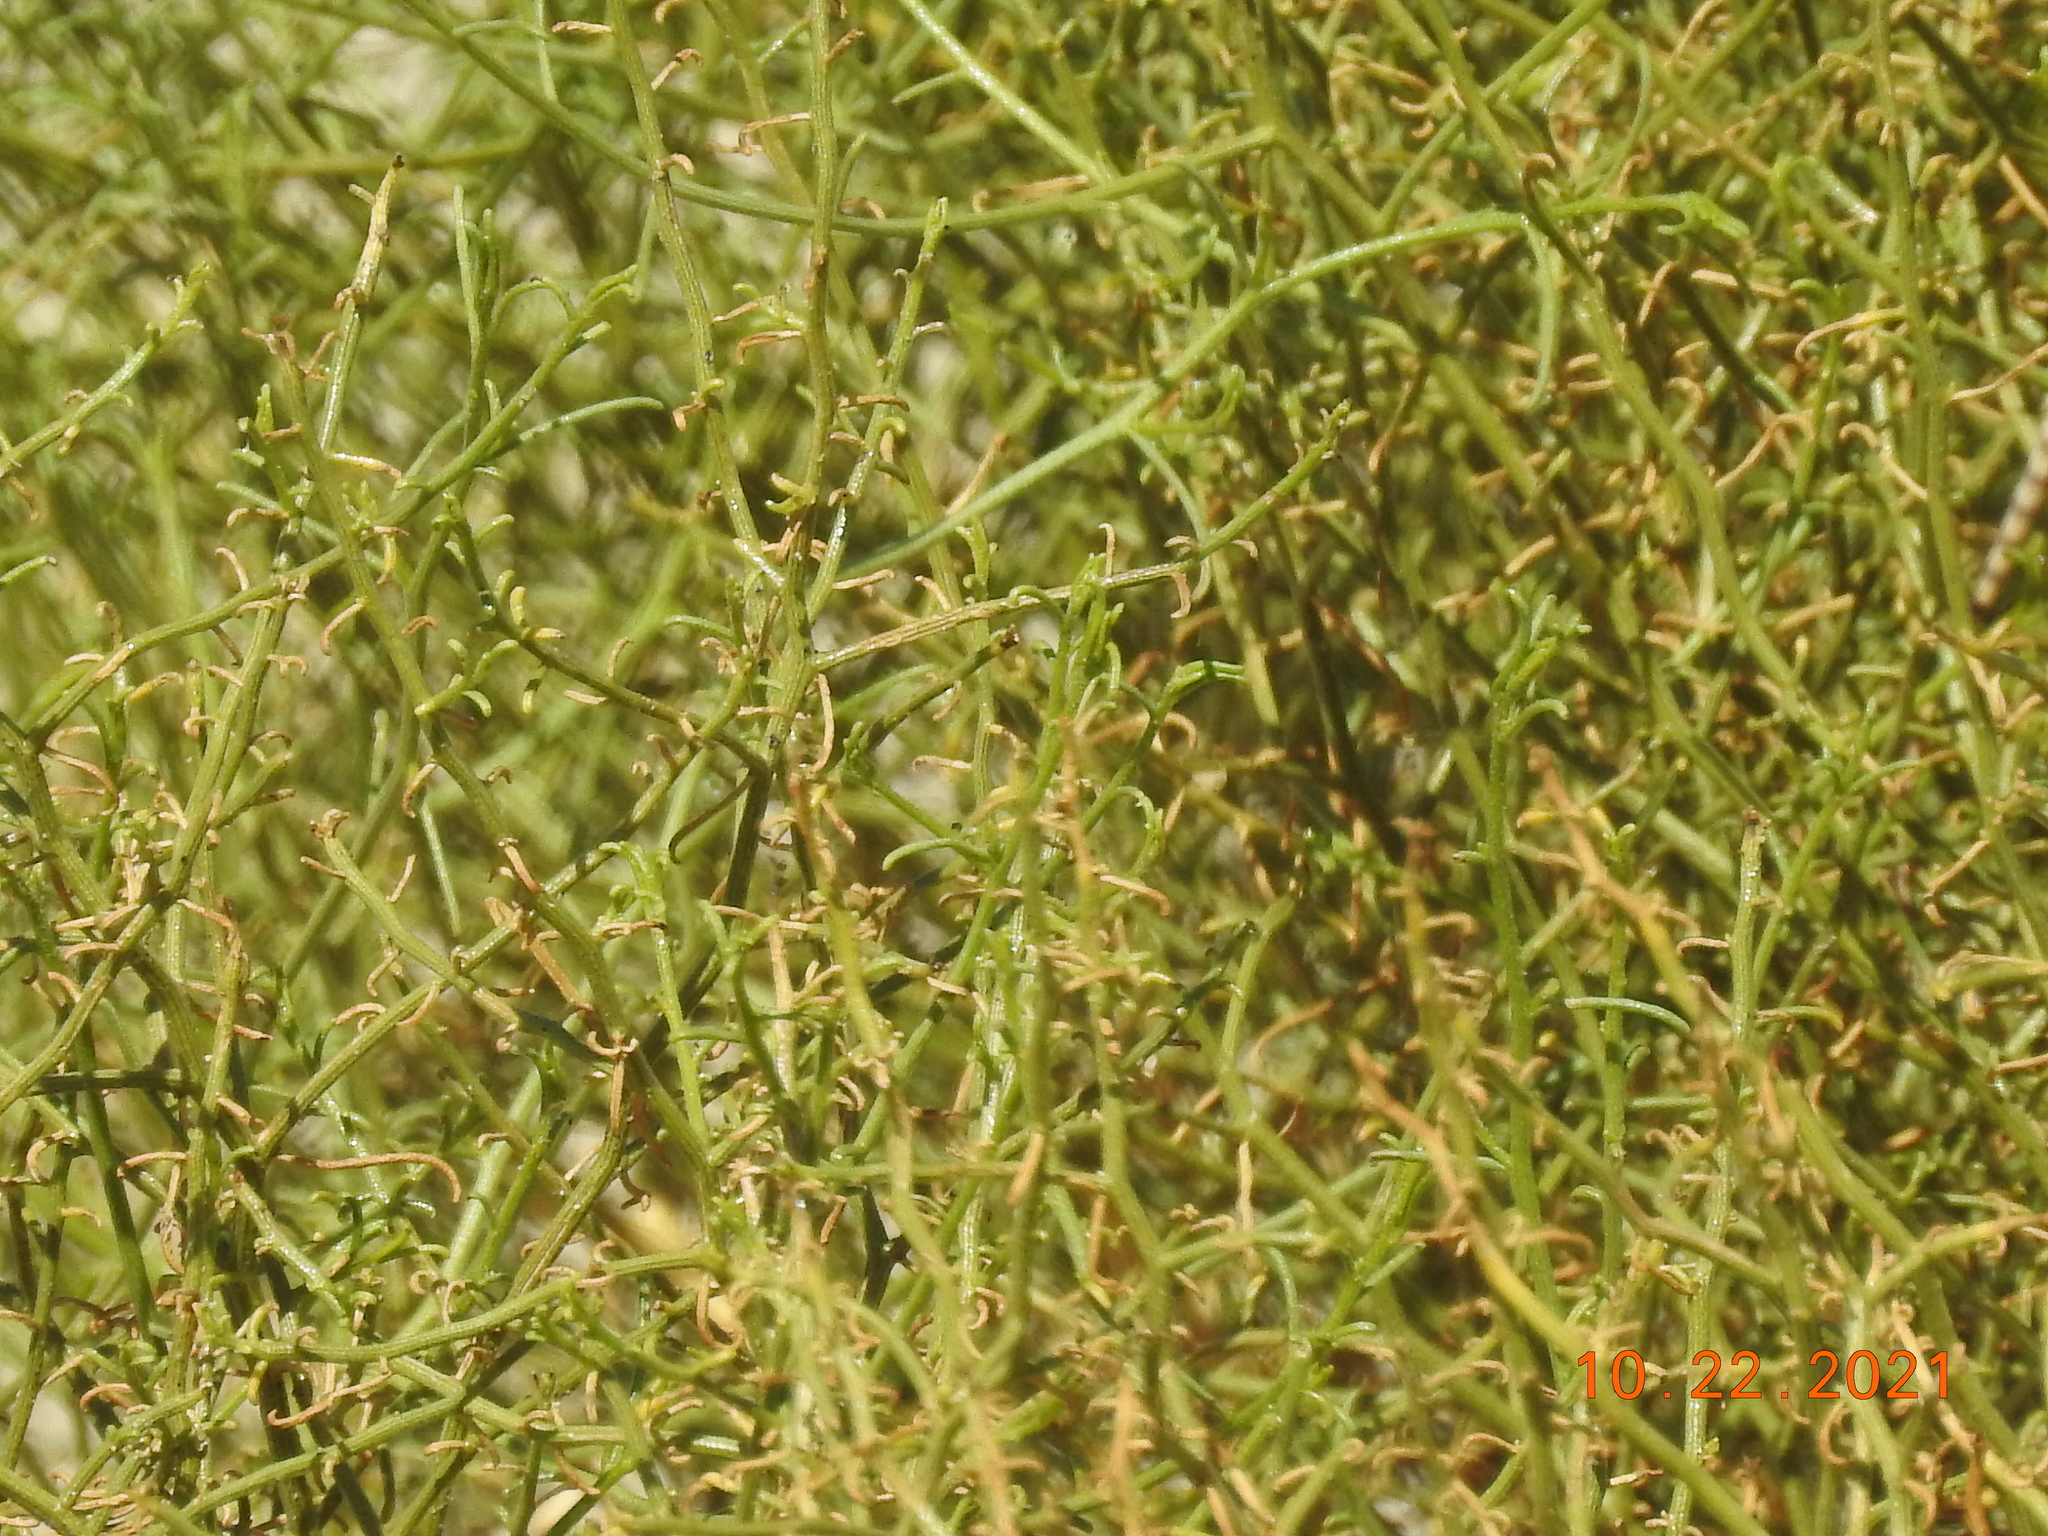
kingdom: Plantae
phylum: Tracheophyta
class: Magnoliopsida
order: Asterales
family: Asteraceae
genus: Ambrosia
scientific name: Ambrosia salsola
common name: Burrobrush
